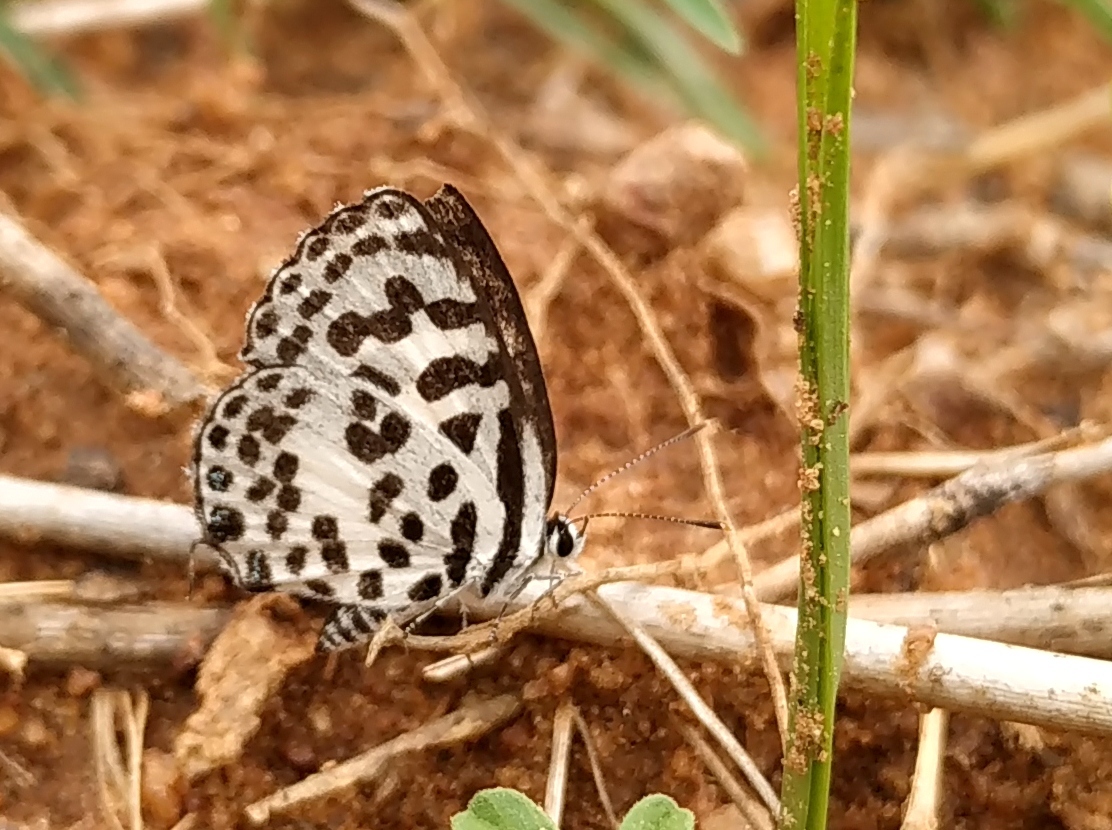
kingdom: Animalia
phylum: Arthropoda
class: Insecta
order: Lepidoptera
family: Lycaenidae
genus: Castalius
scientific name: Castalius rosimon
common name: Common pierrot
